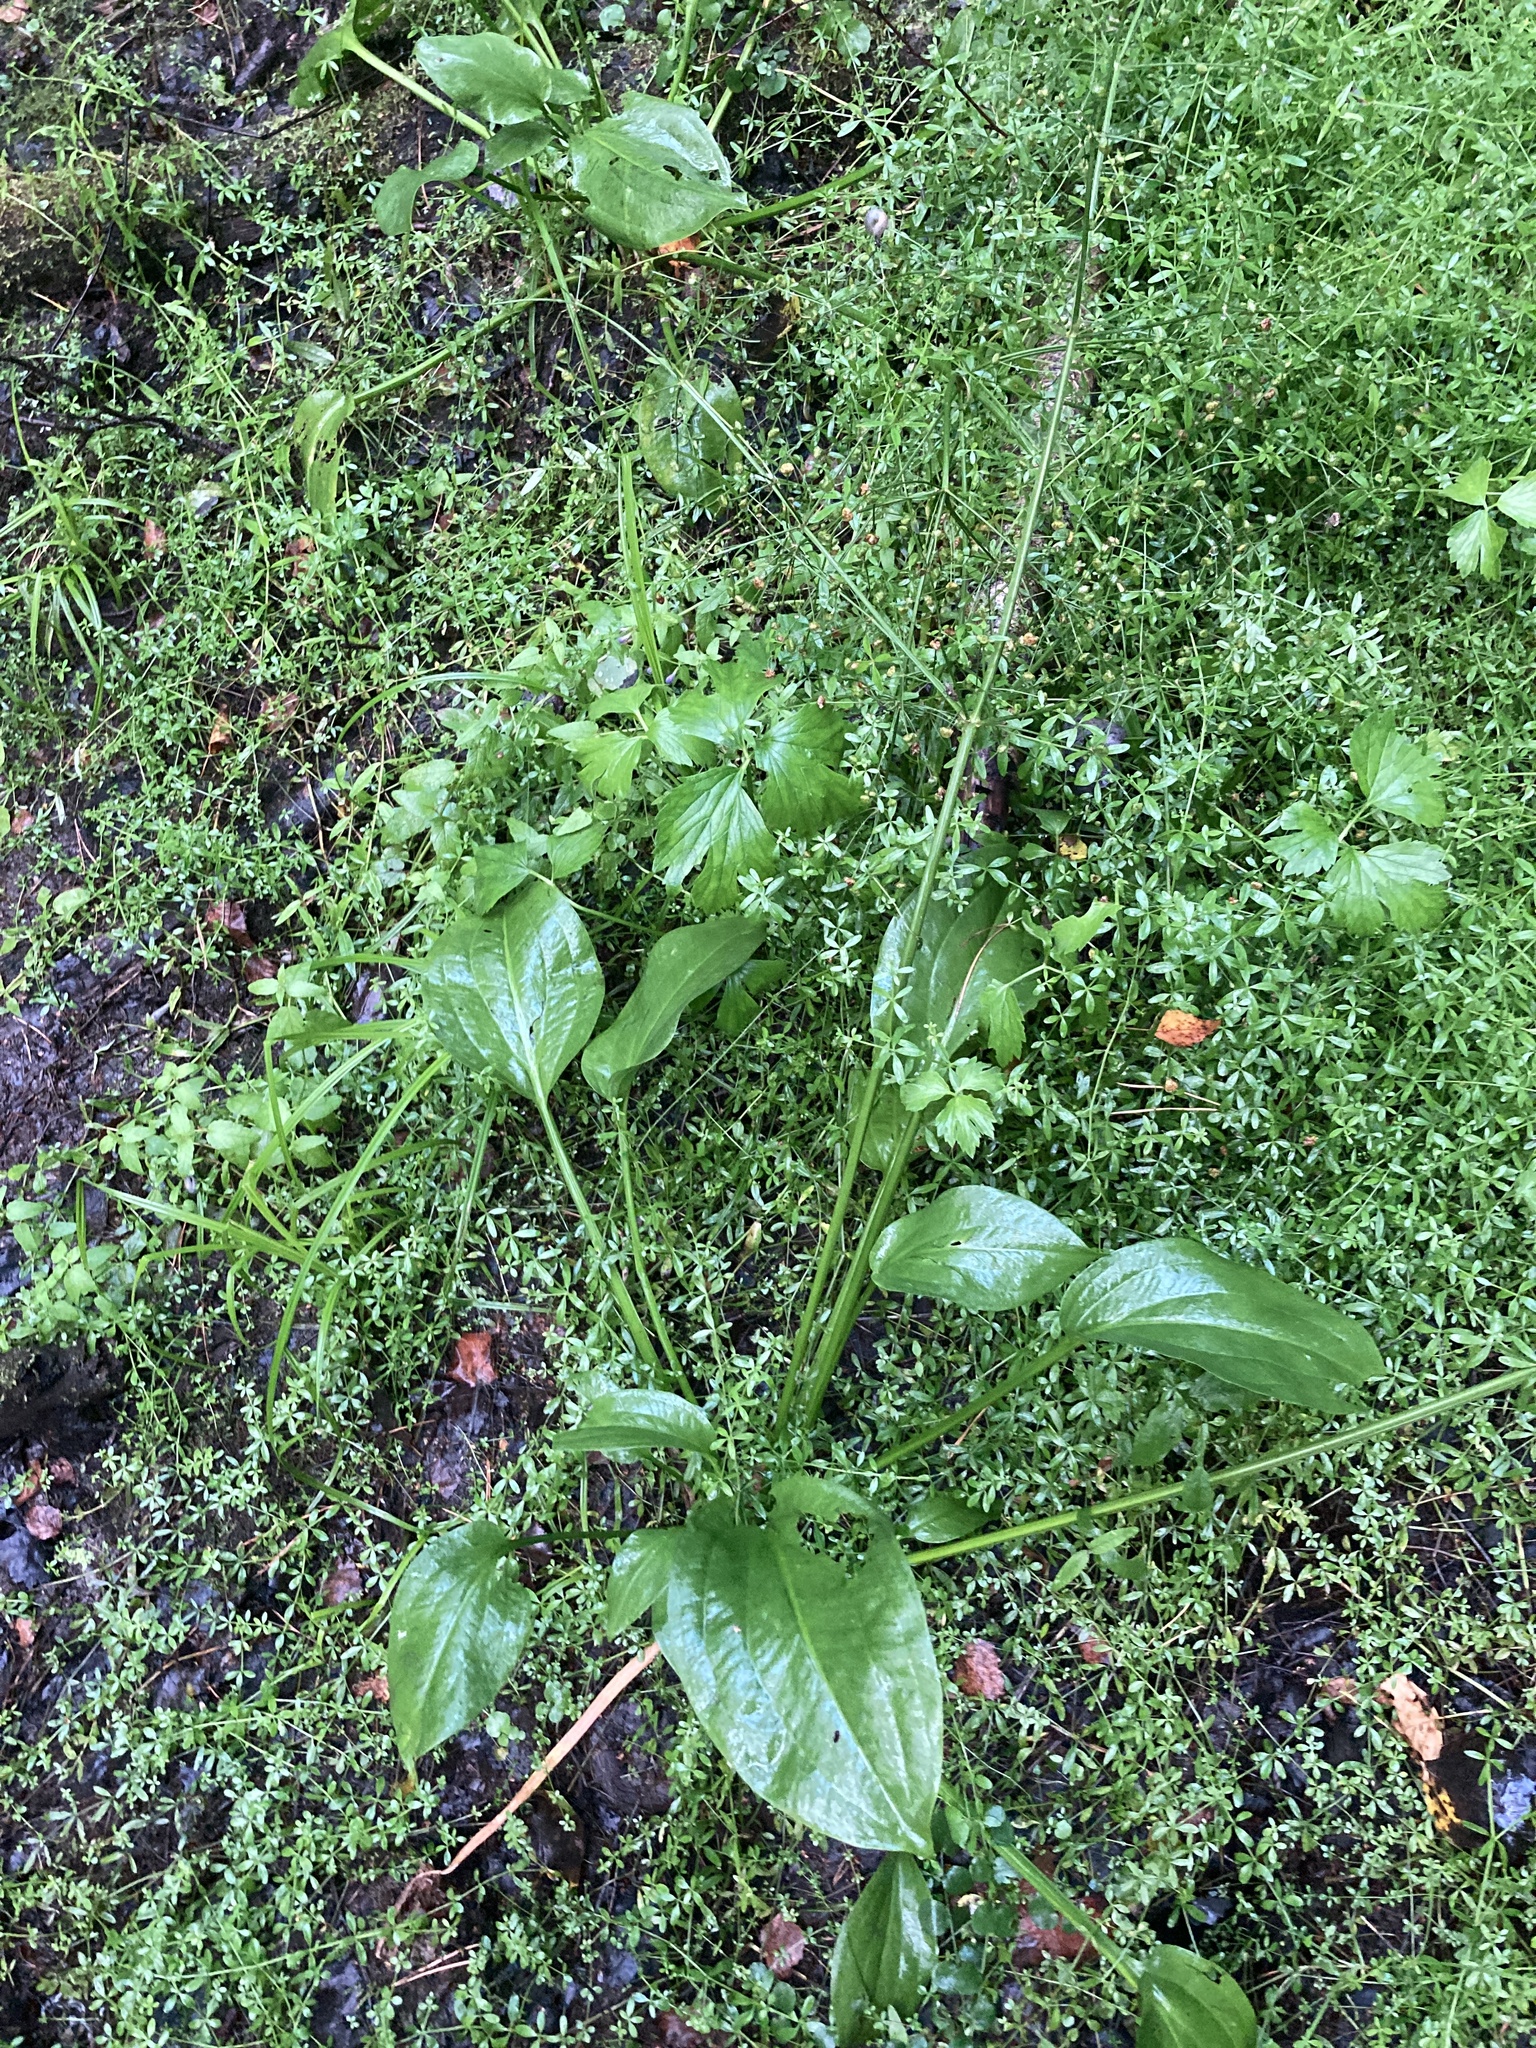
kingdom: Plantae
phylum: Tracheophyta
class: Liliopsida
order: Alismatales
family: Alismataceae
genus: Alisma
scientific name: Alisma plantago-aquatica
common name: Water-plantain
